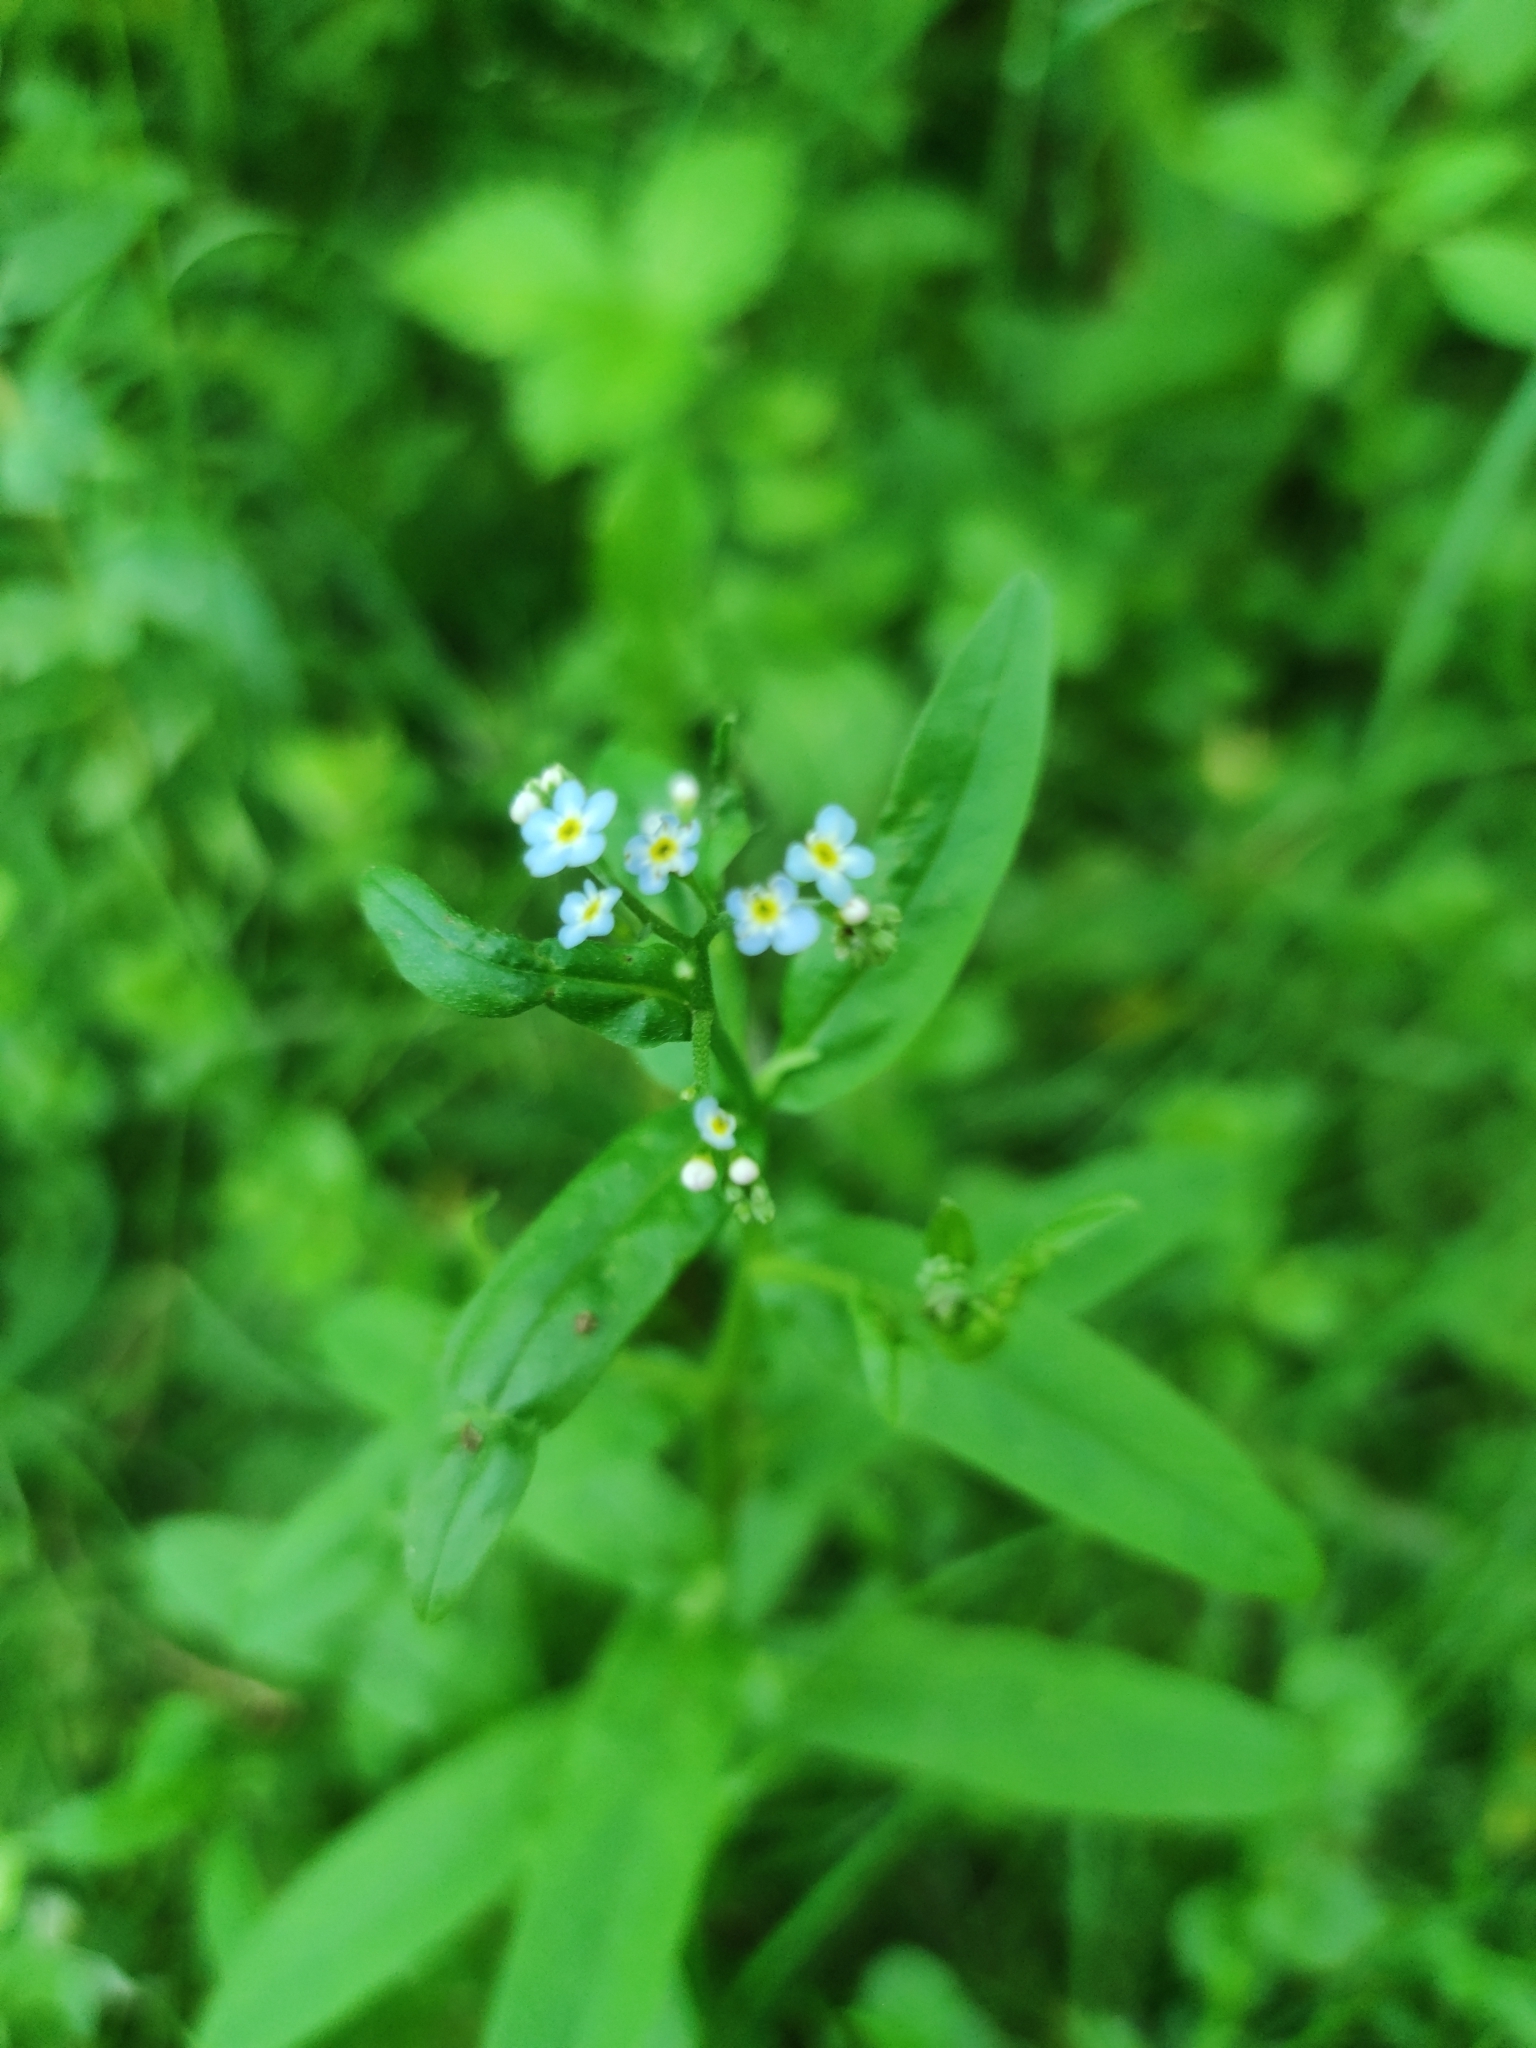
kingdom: Plantae
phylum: Tracheophyta
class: Magnoliopsida
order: Boraginales
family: Boraginaceae
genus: Myosotis
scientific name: Myosotis scorpioides
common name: Water forget-me-not
